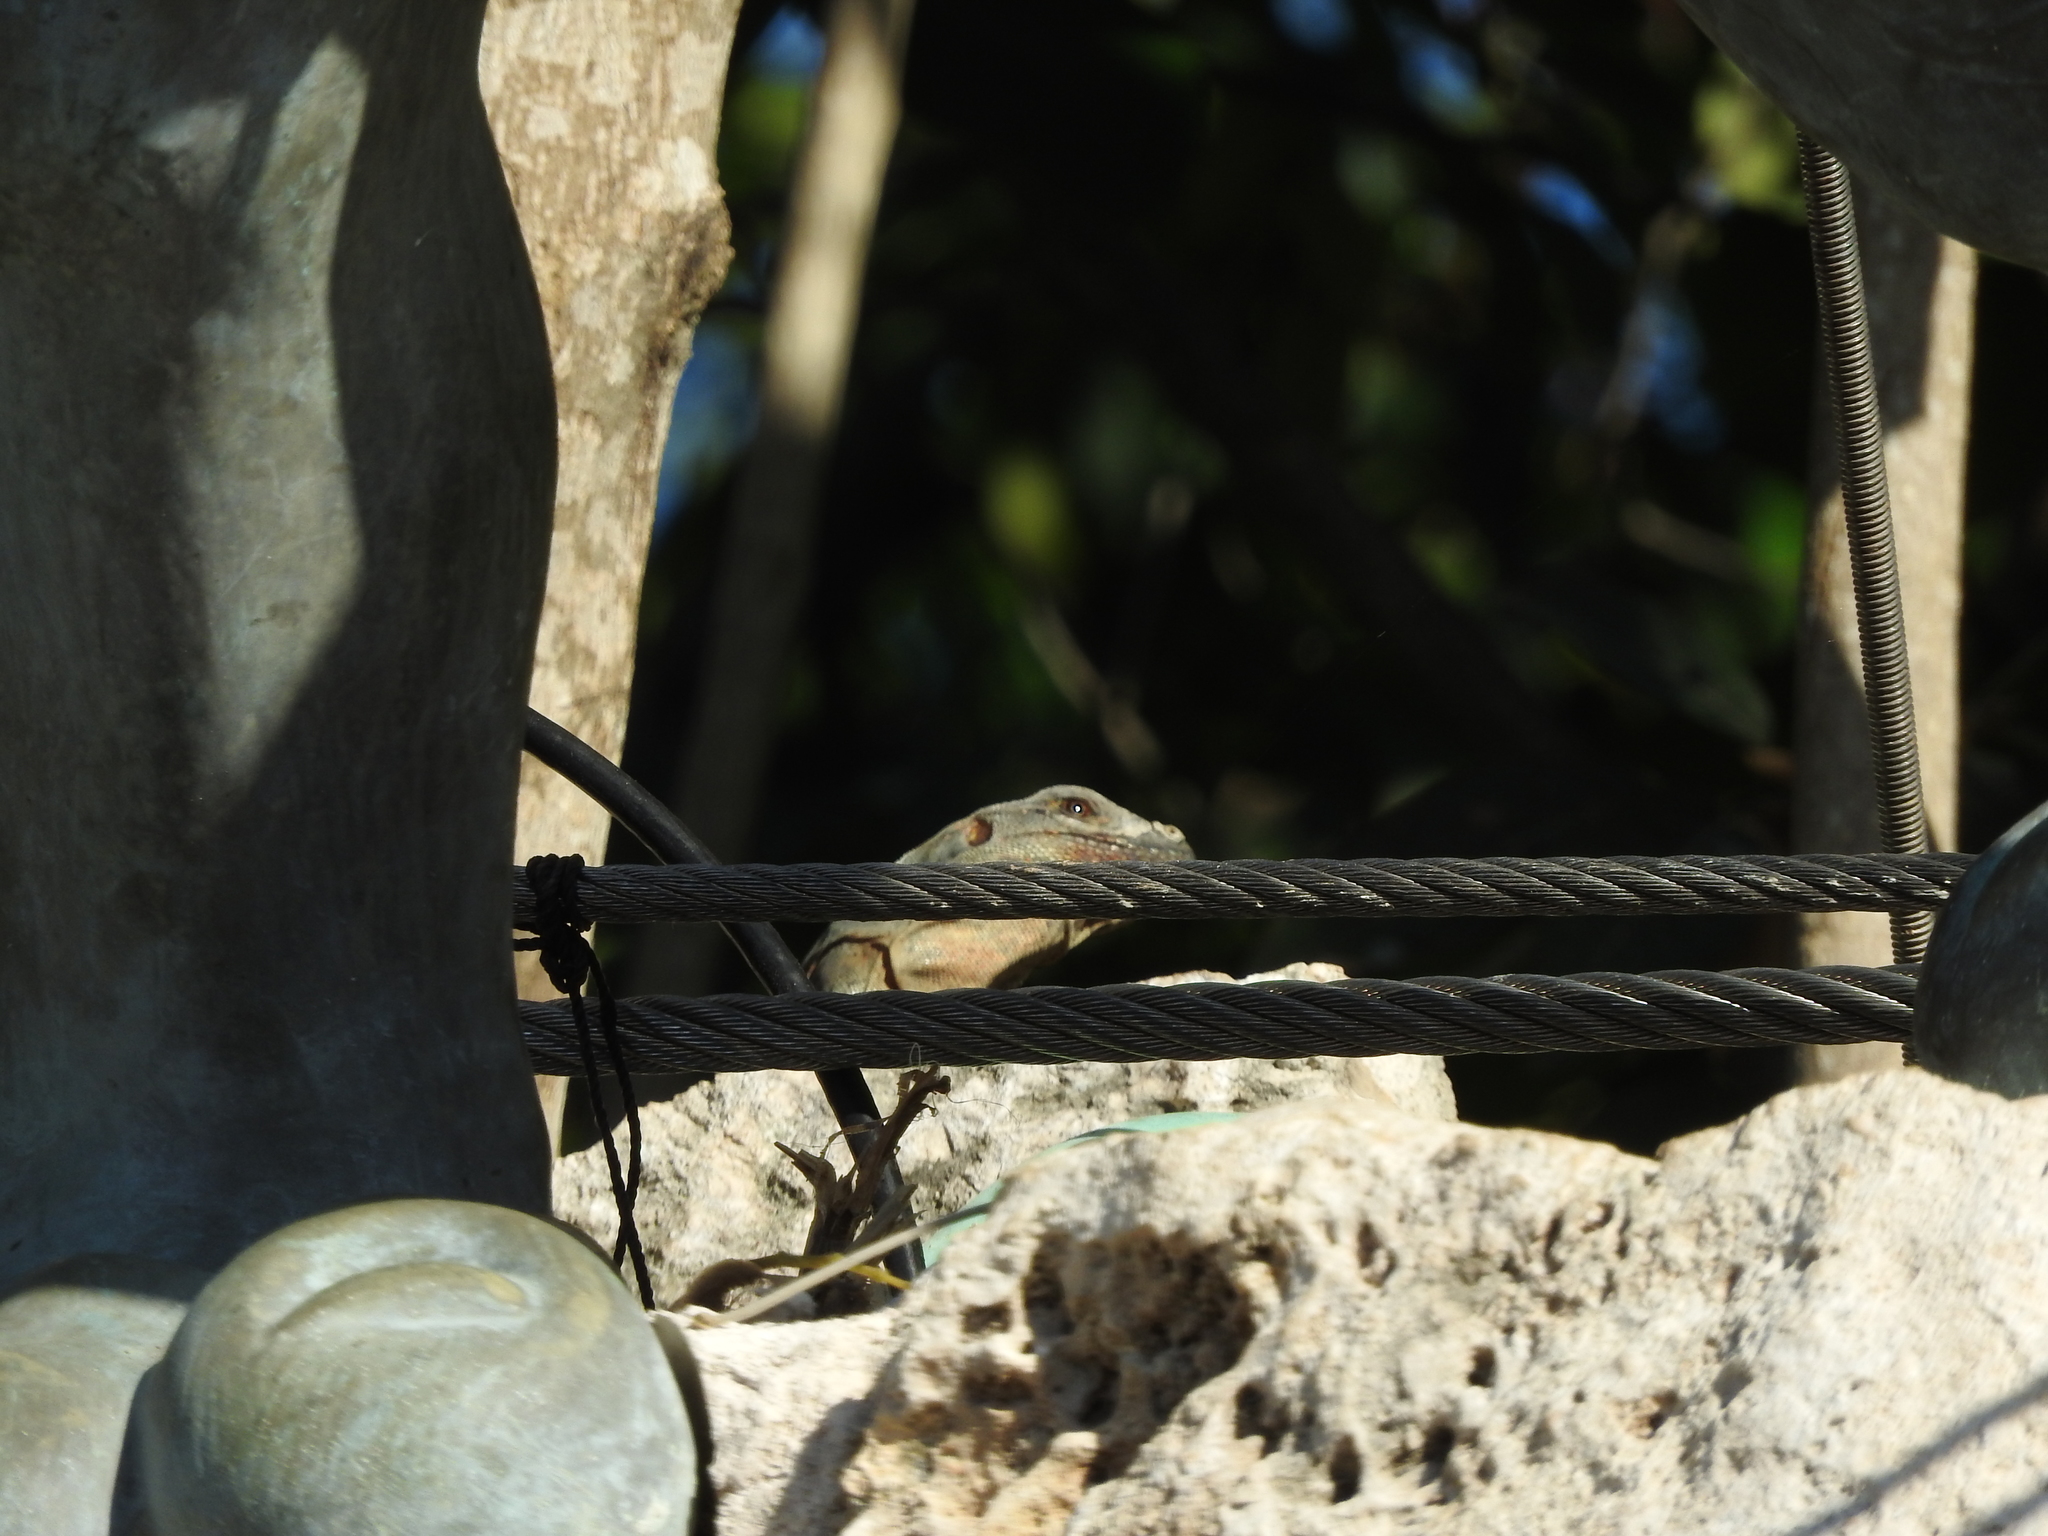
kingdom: Animalia
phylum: Chordata
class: Squamata
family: Iguanidae
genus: Ctenosaura
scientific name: Ctenosaura similis
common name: Black spiny-tailed iguana
